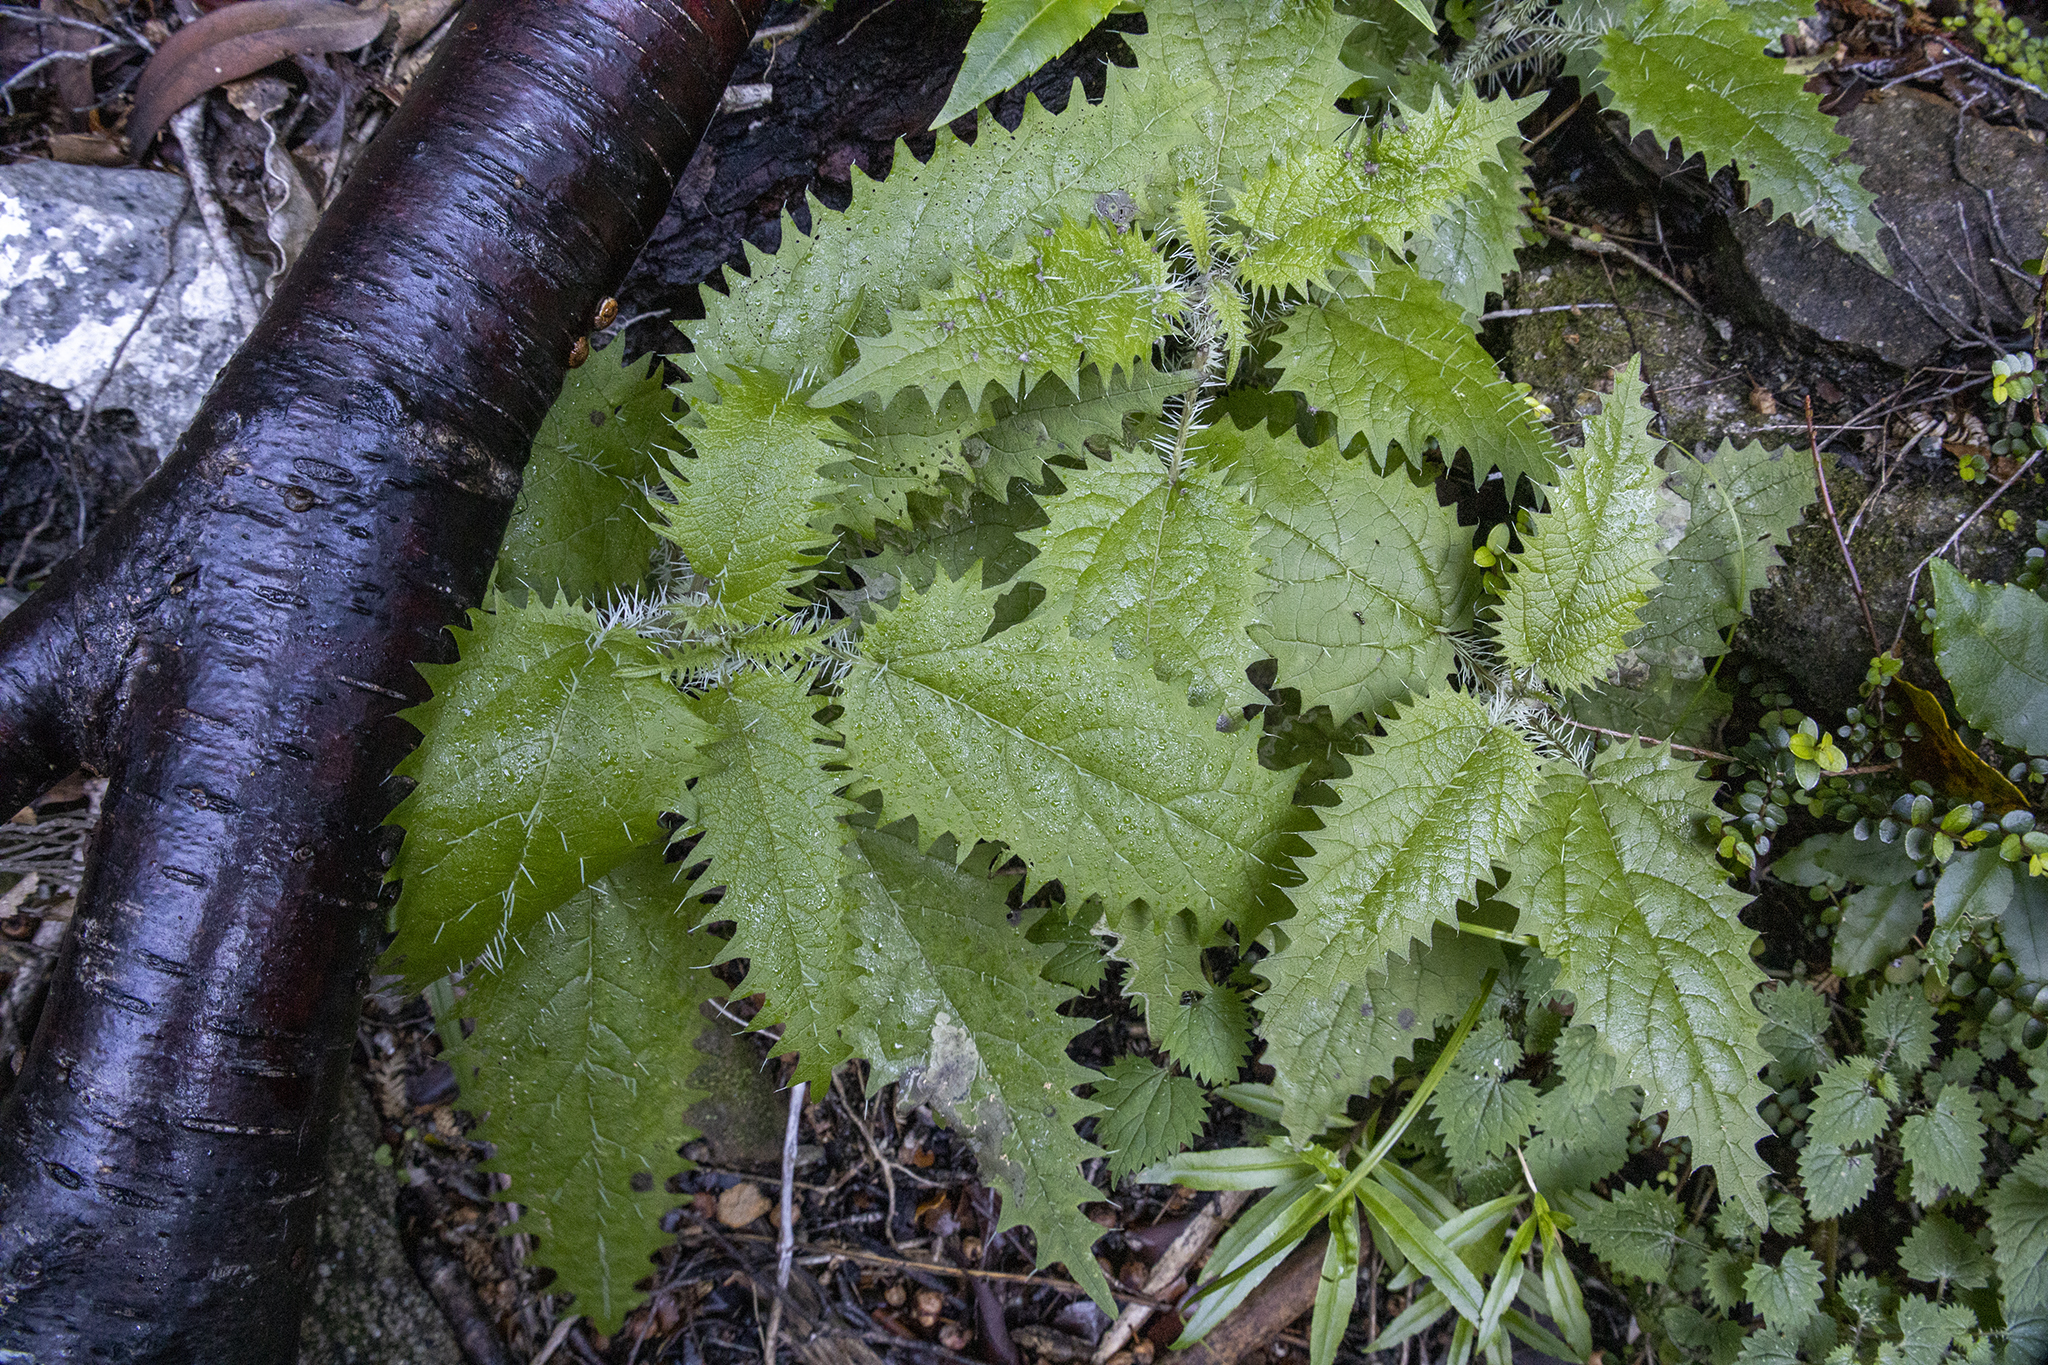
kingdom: Plantae
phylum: Tracheophyta
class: Magnoliopsida
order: Rosales
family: Urticaceae
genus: Urtica
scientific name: Urtica ferox
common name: Tree nettle
